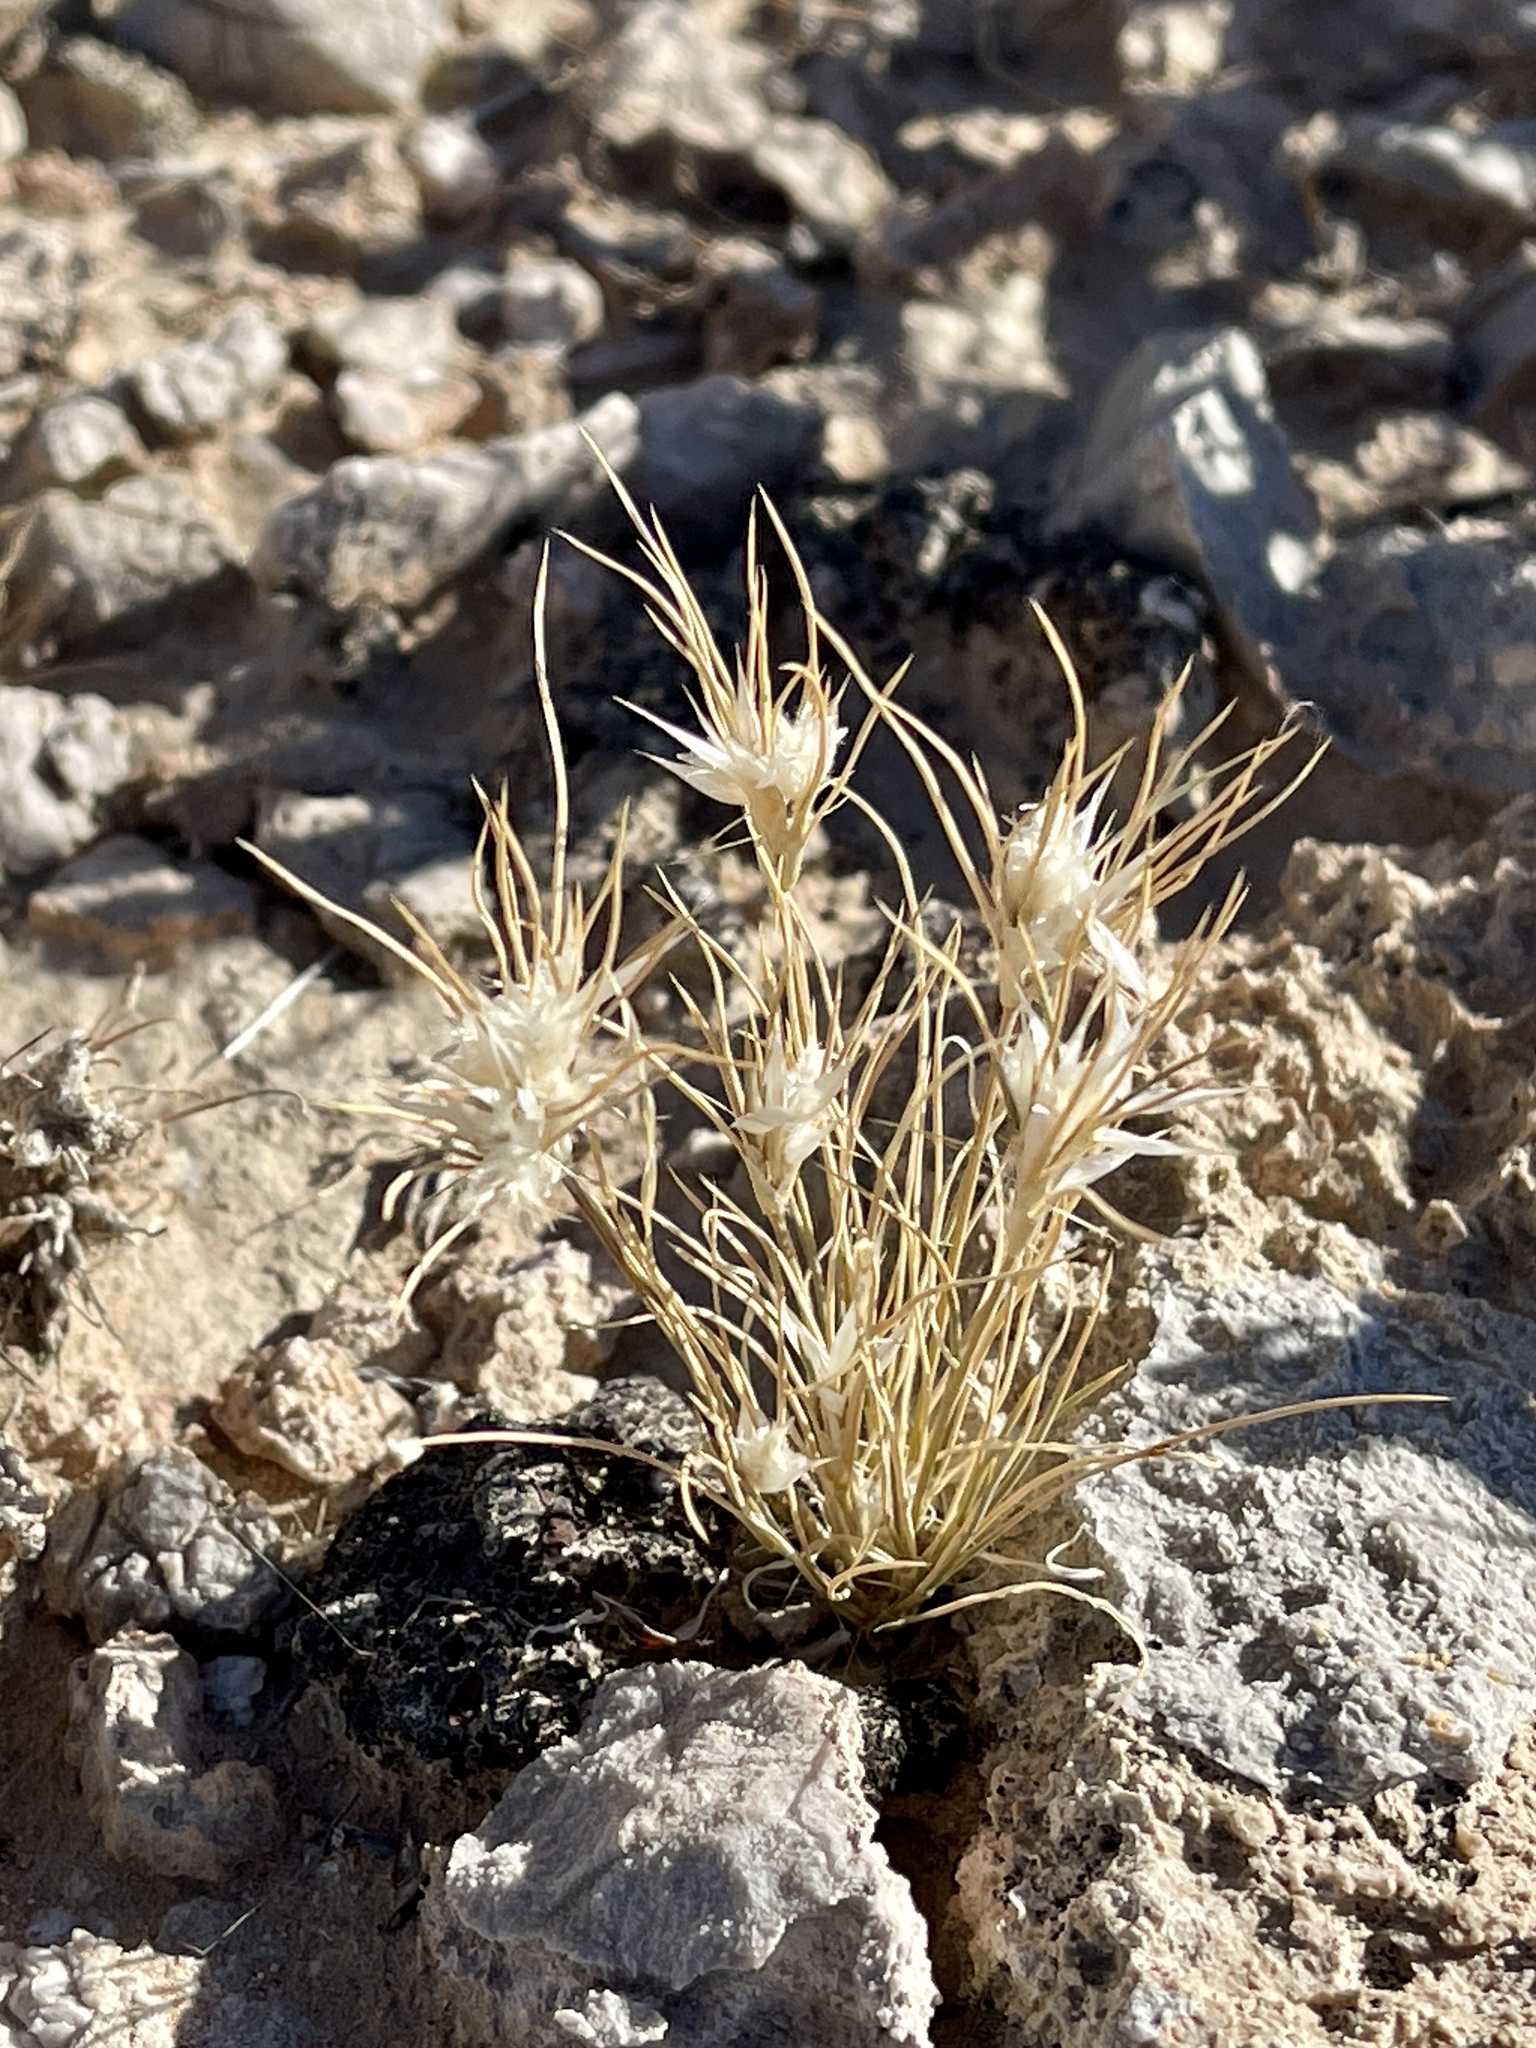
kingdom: Plantae
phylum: Tracheophyta
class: Liliopsida
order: Poales
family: Poaceae
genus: Dasyochloa
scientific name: Dasyochloa pulchella
